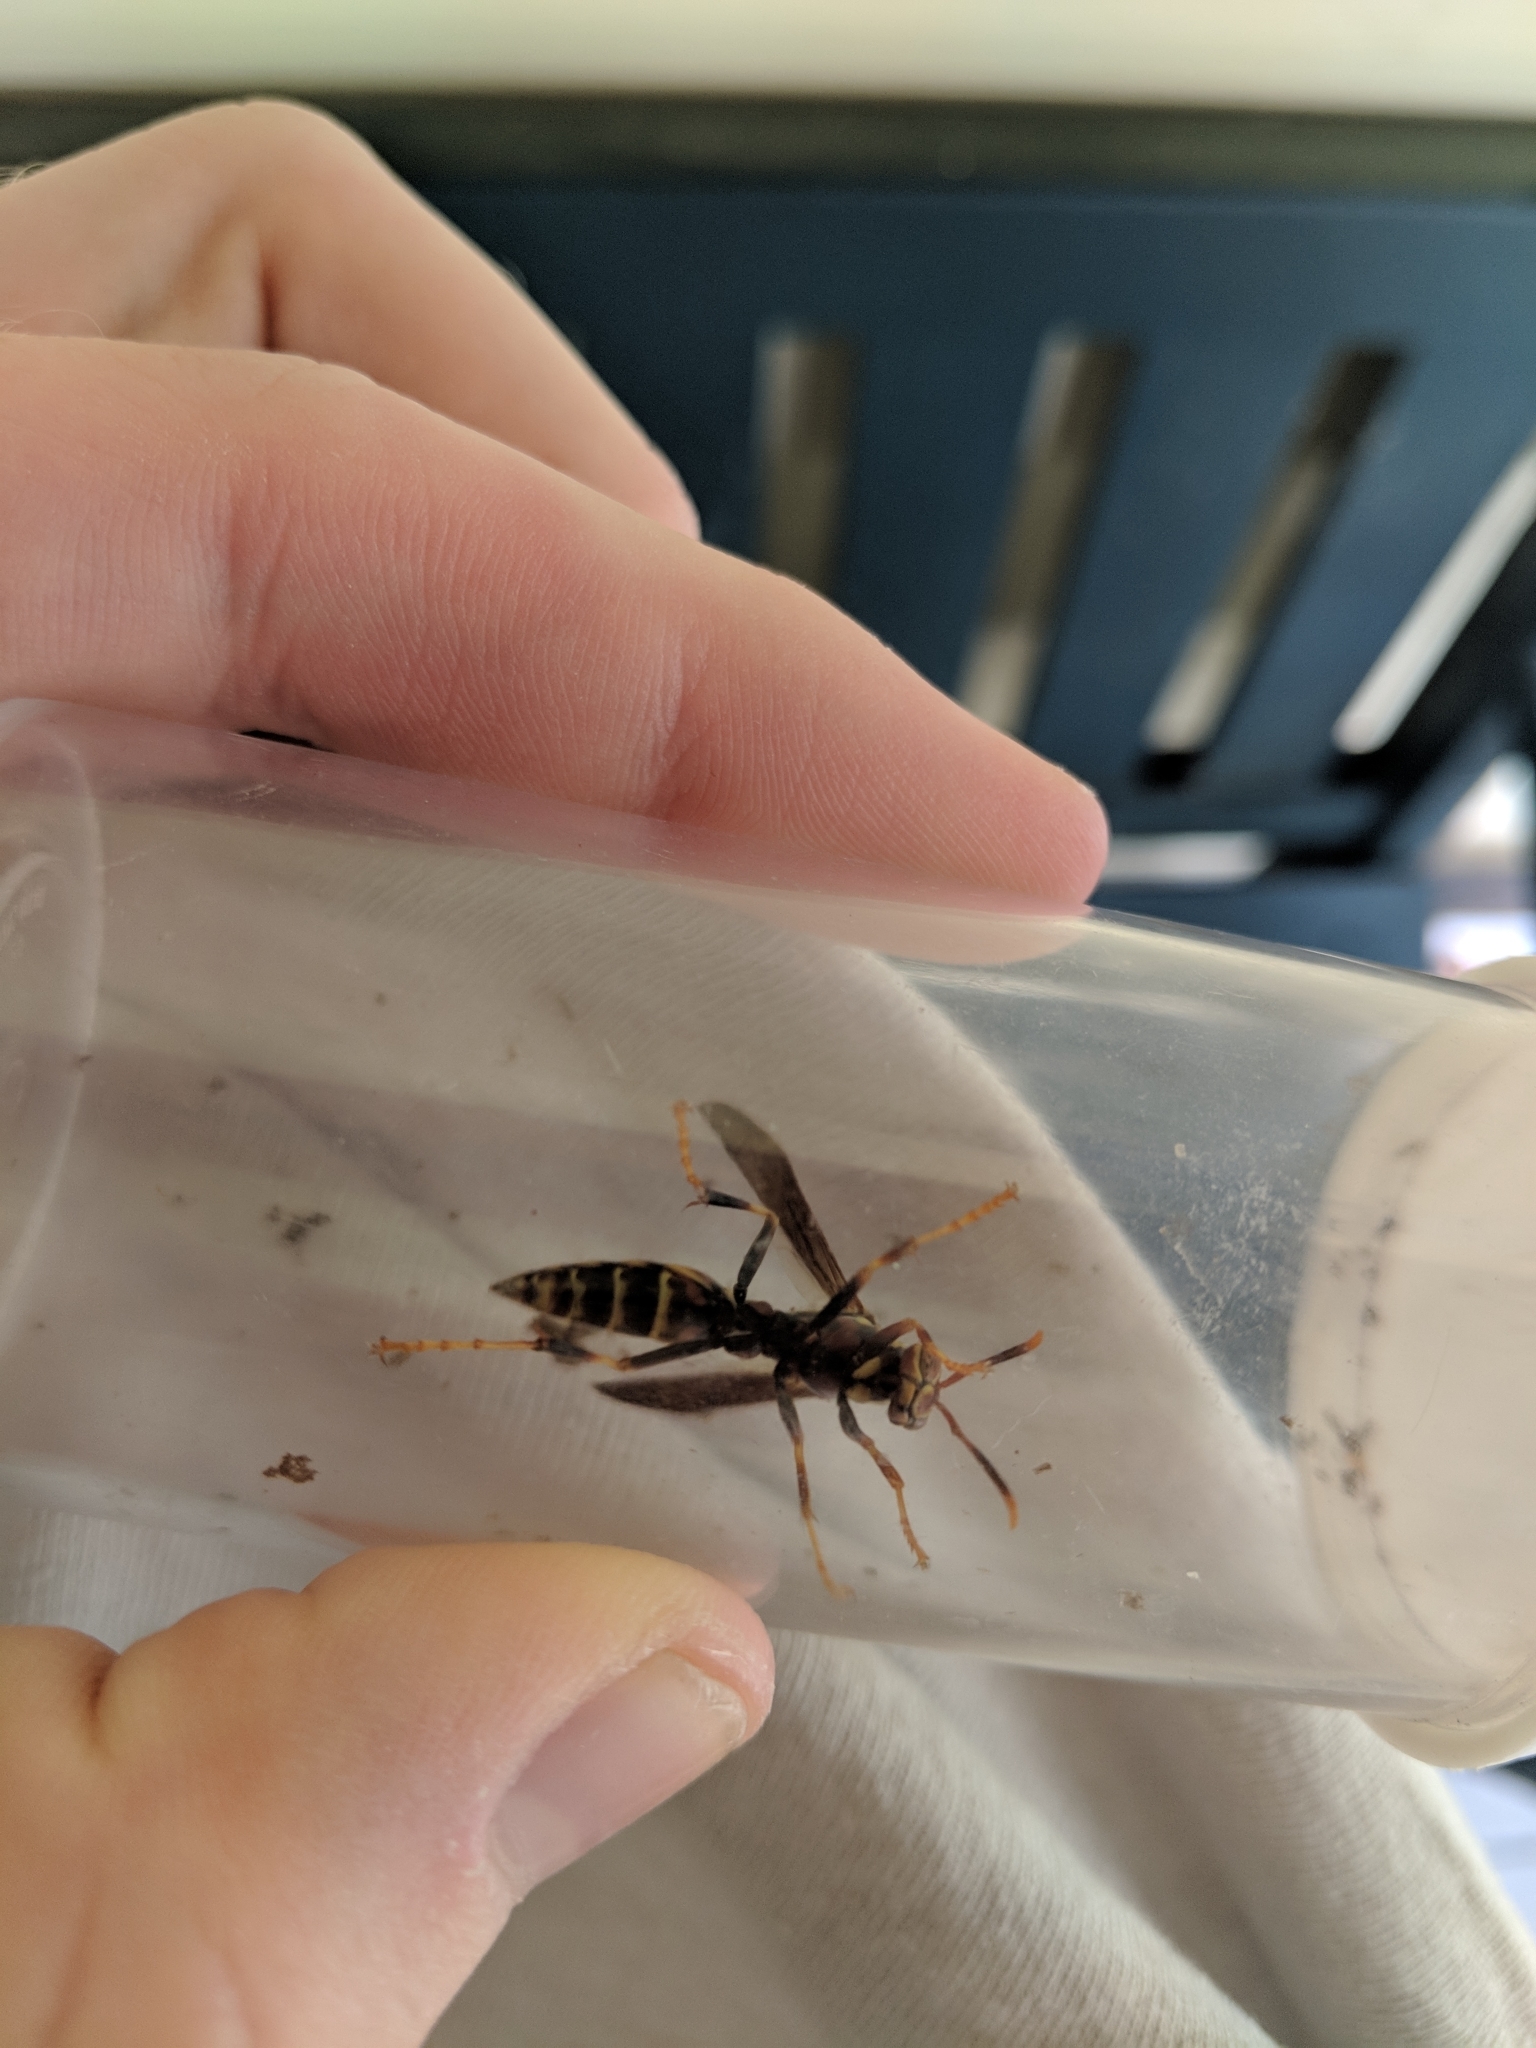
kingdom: Animalia
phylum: Arthropoda
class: Insecta
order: Hymenoptera
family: Eumenidae
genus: Polistes
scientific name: Polistes exclamans
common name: Paper wasp
